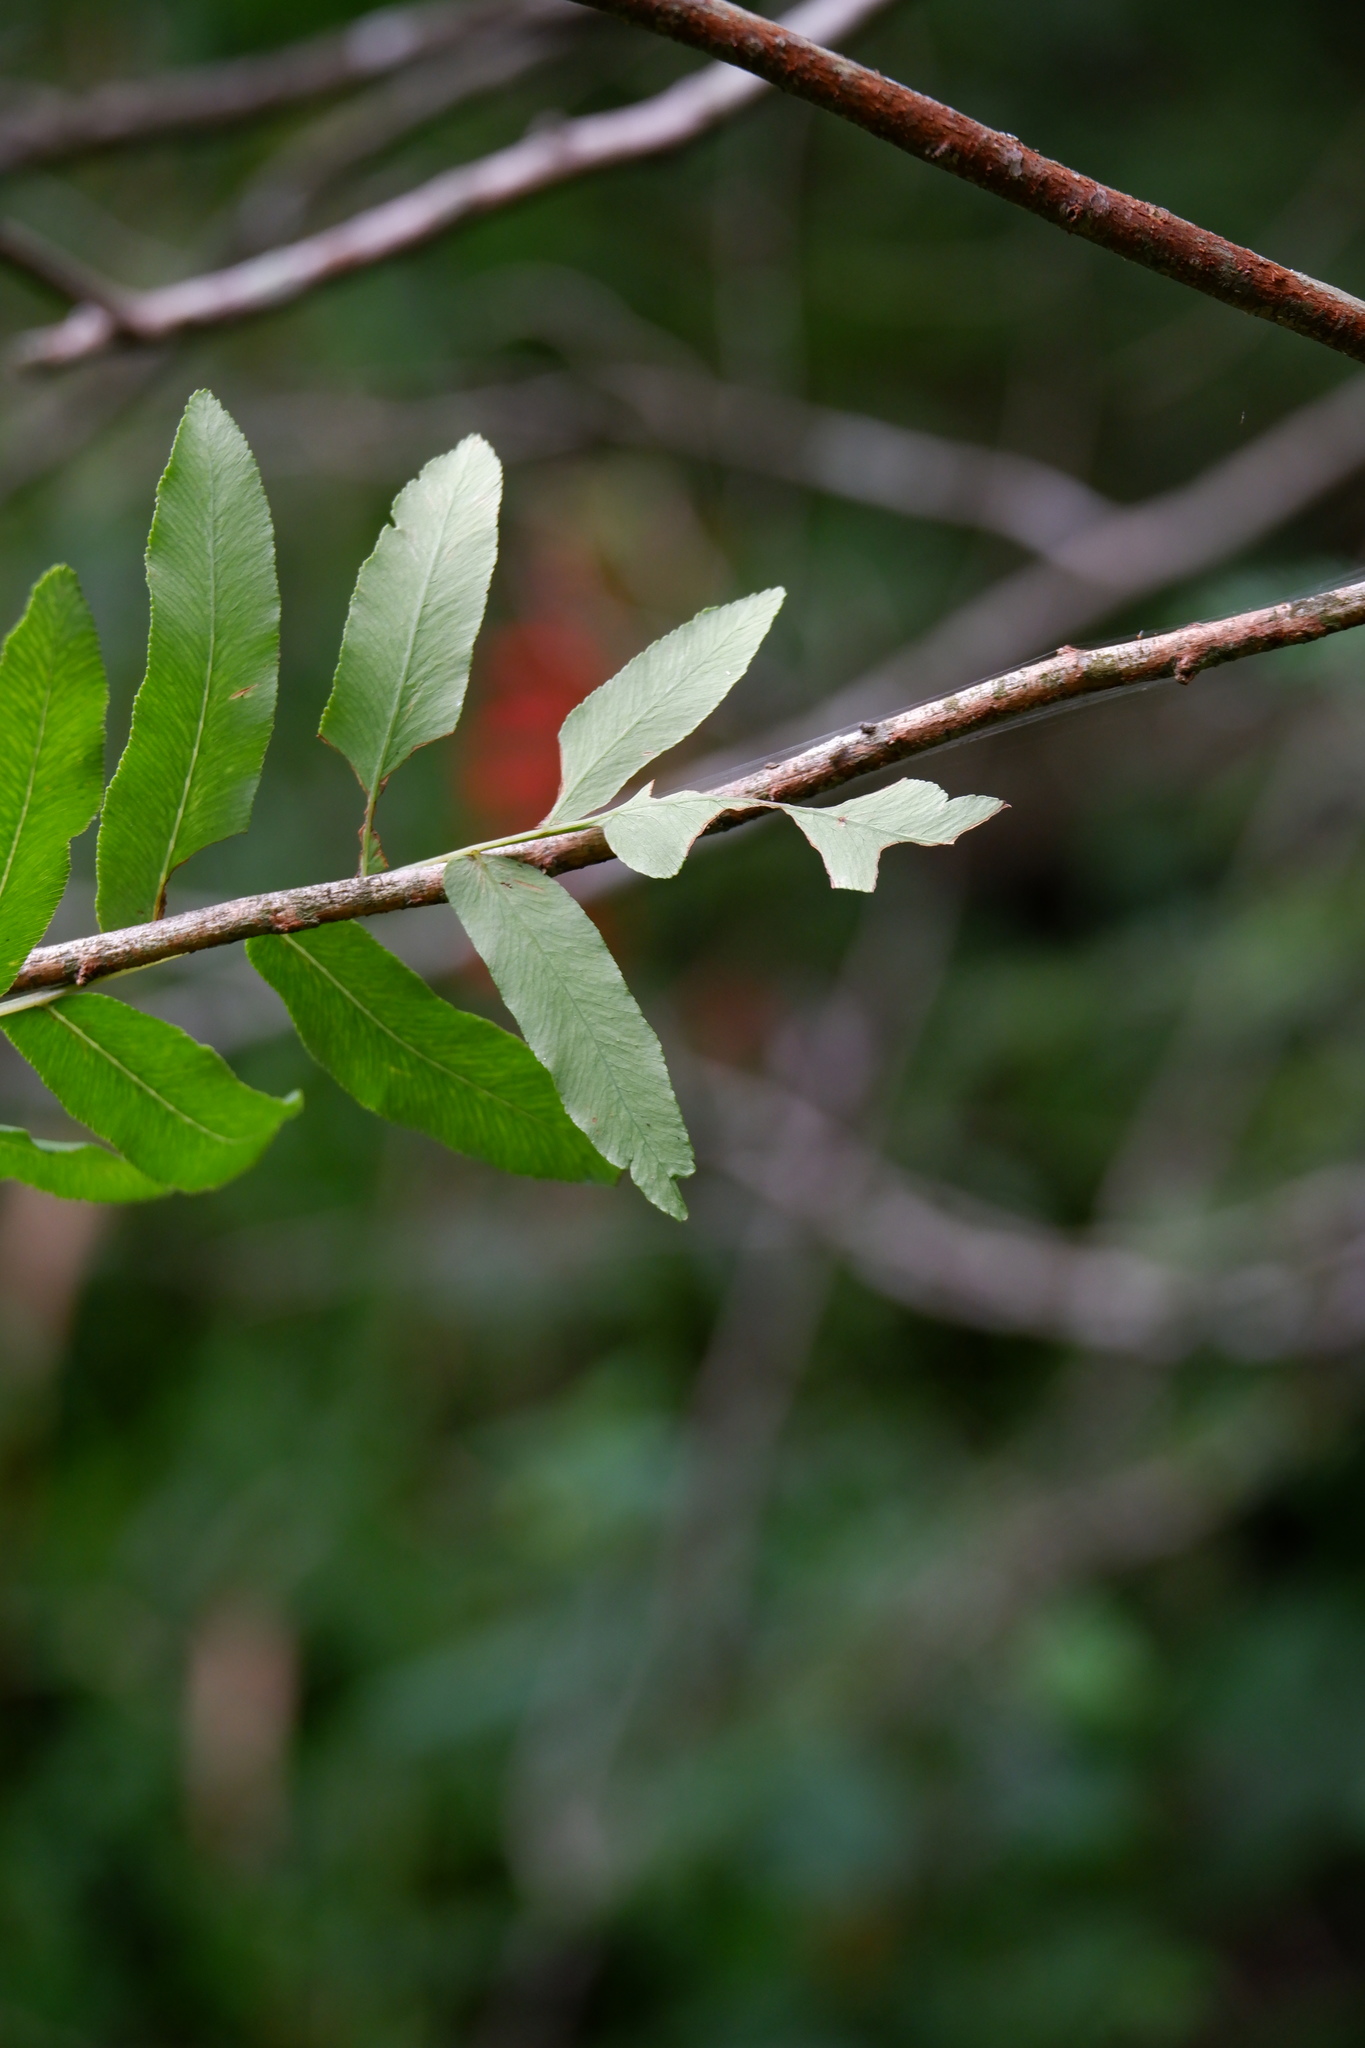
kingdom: Plantae
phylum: Tracheophyta
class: Polypodiopsida
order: Osmundales
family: Osmundaceae
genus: Osmunda
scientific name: Osmunda spectabilis
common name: American royal fern
